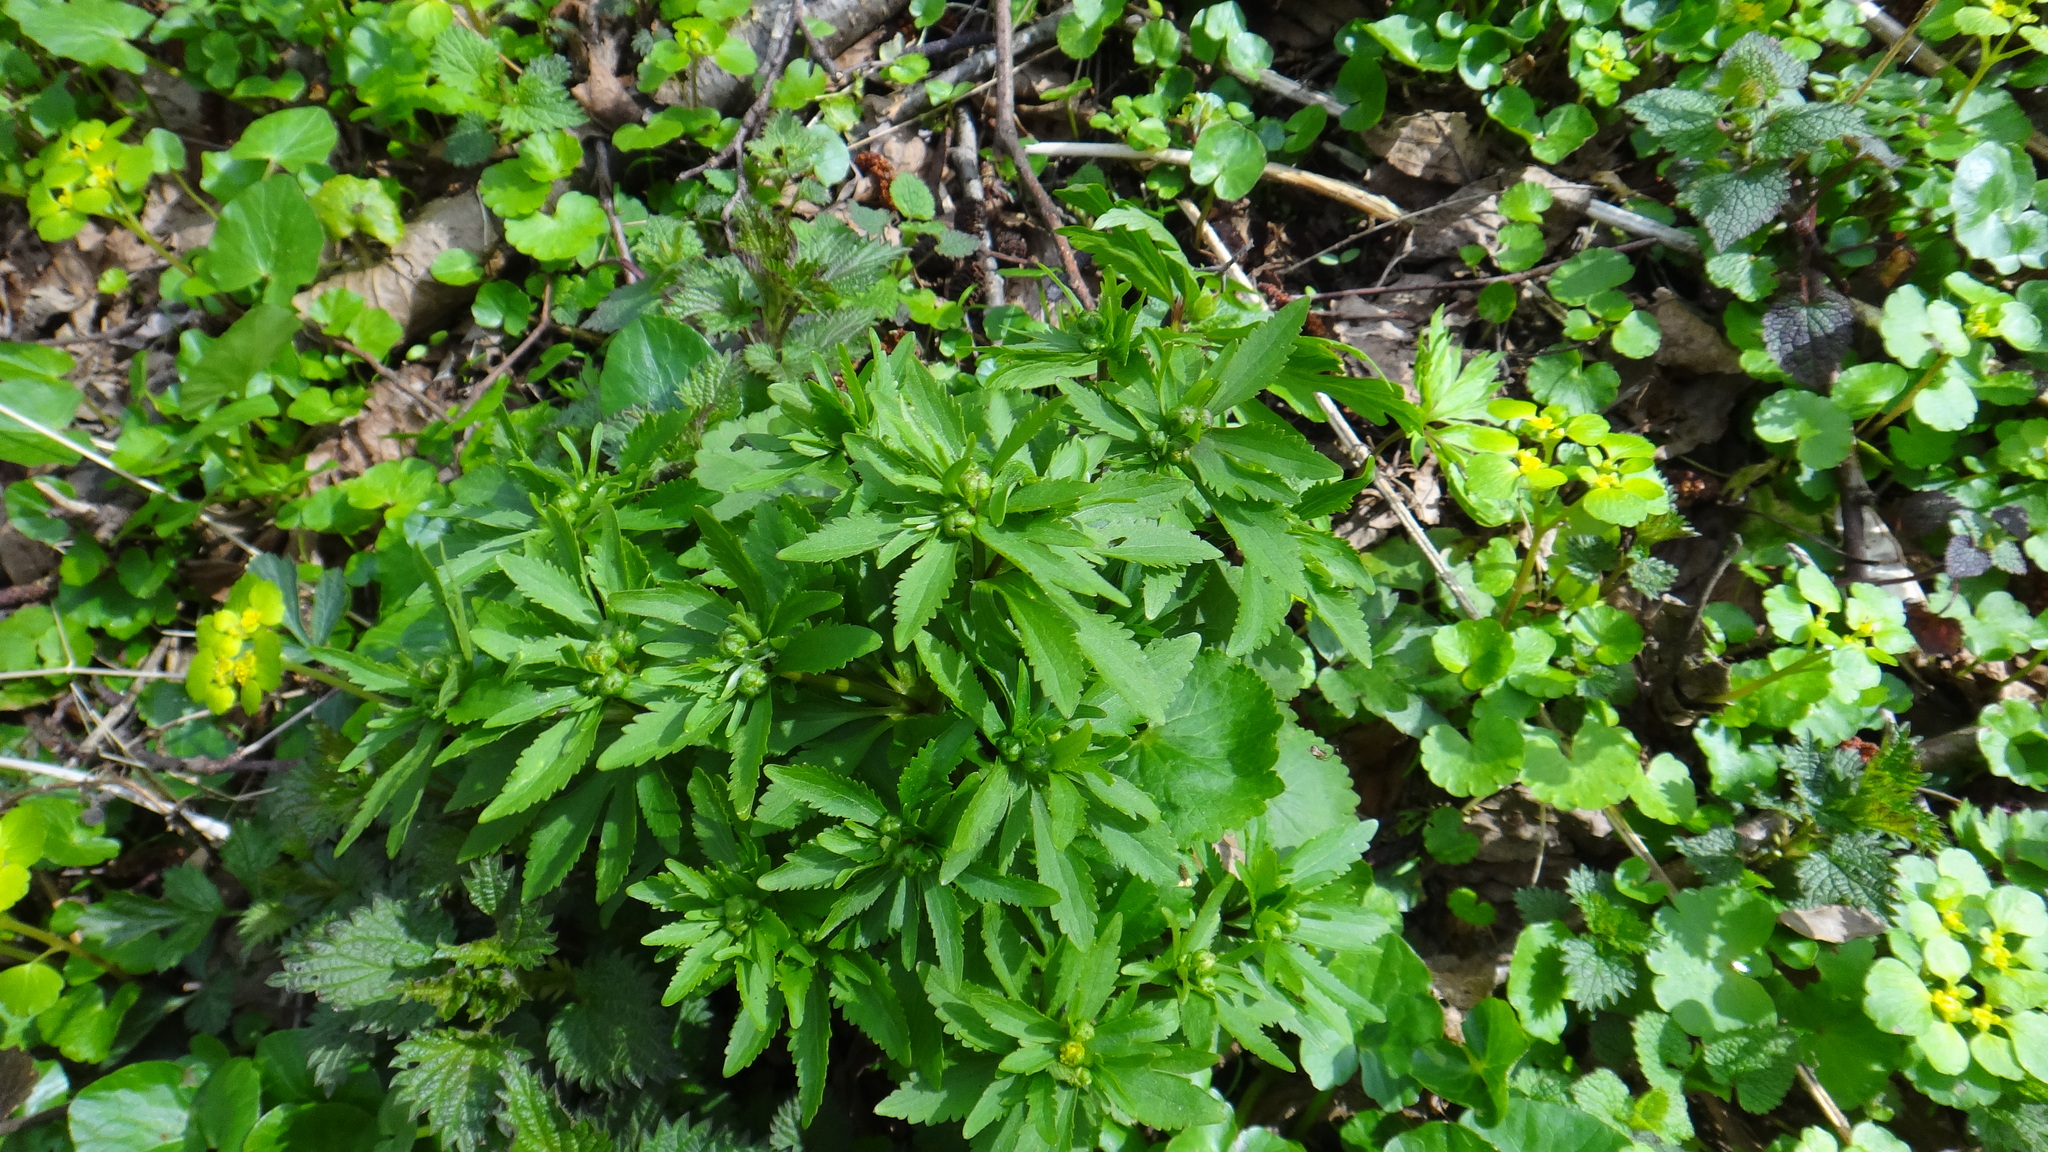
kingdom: Plantae
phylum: Tracheophyta
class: Magnoliopsida
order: Ranunculales
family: Ranunculaceae
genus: Ranunculus
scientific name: Ranunculus cassubicus
